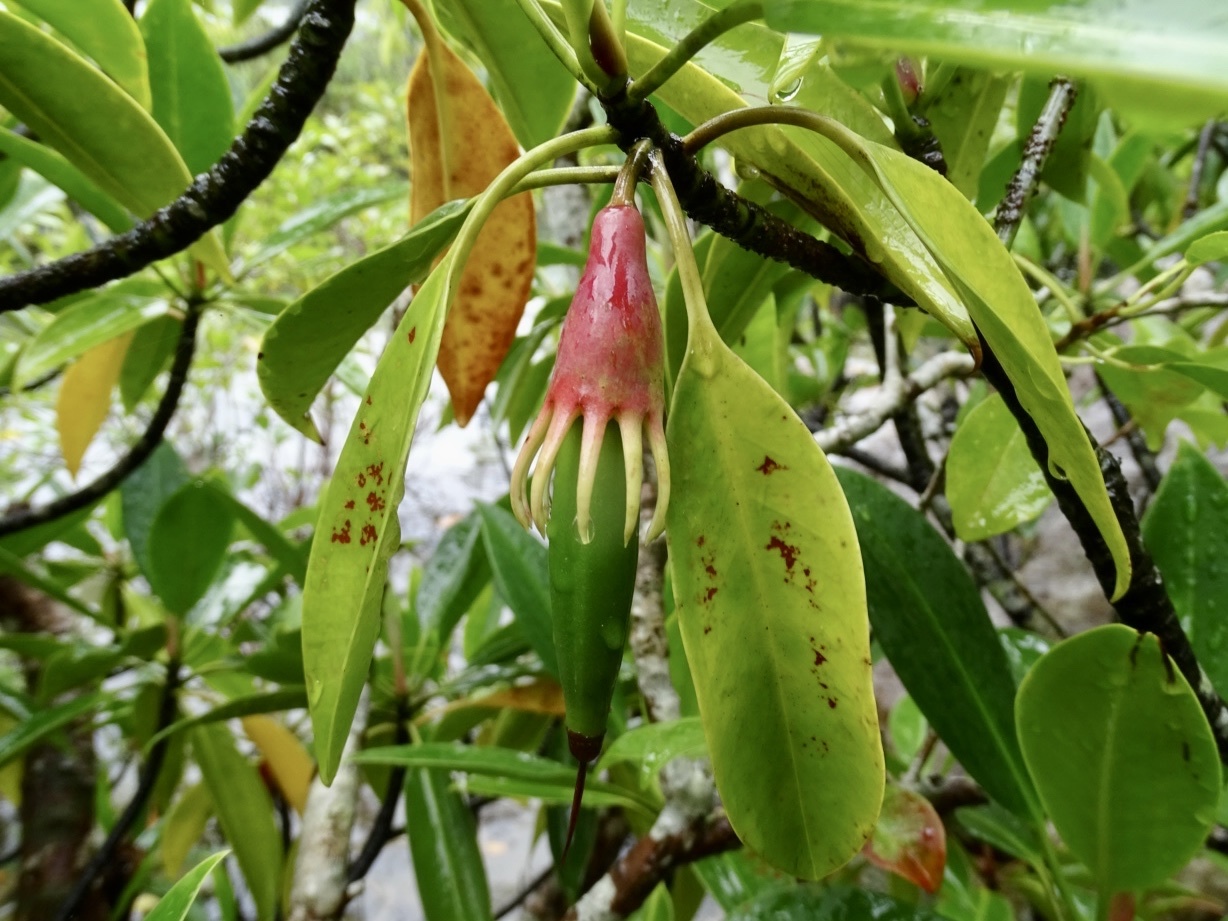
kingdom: Plantae
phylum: Tracheophyta
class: Magnoliopsida
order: Malpighiales
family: Rhizophoraceae
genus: Bruguiera
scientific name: Bruguiera gymnorhiza
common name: Oriental mangrove
